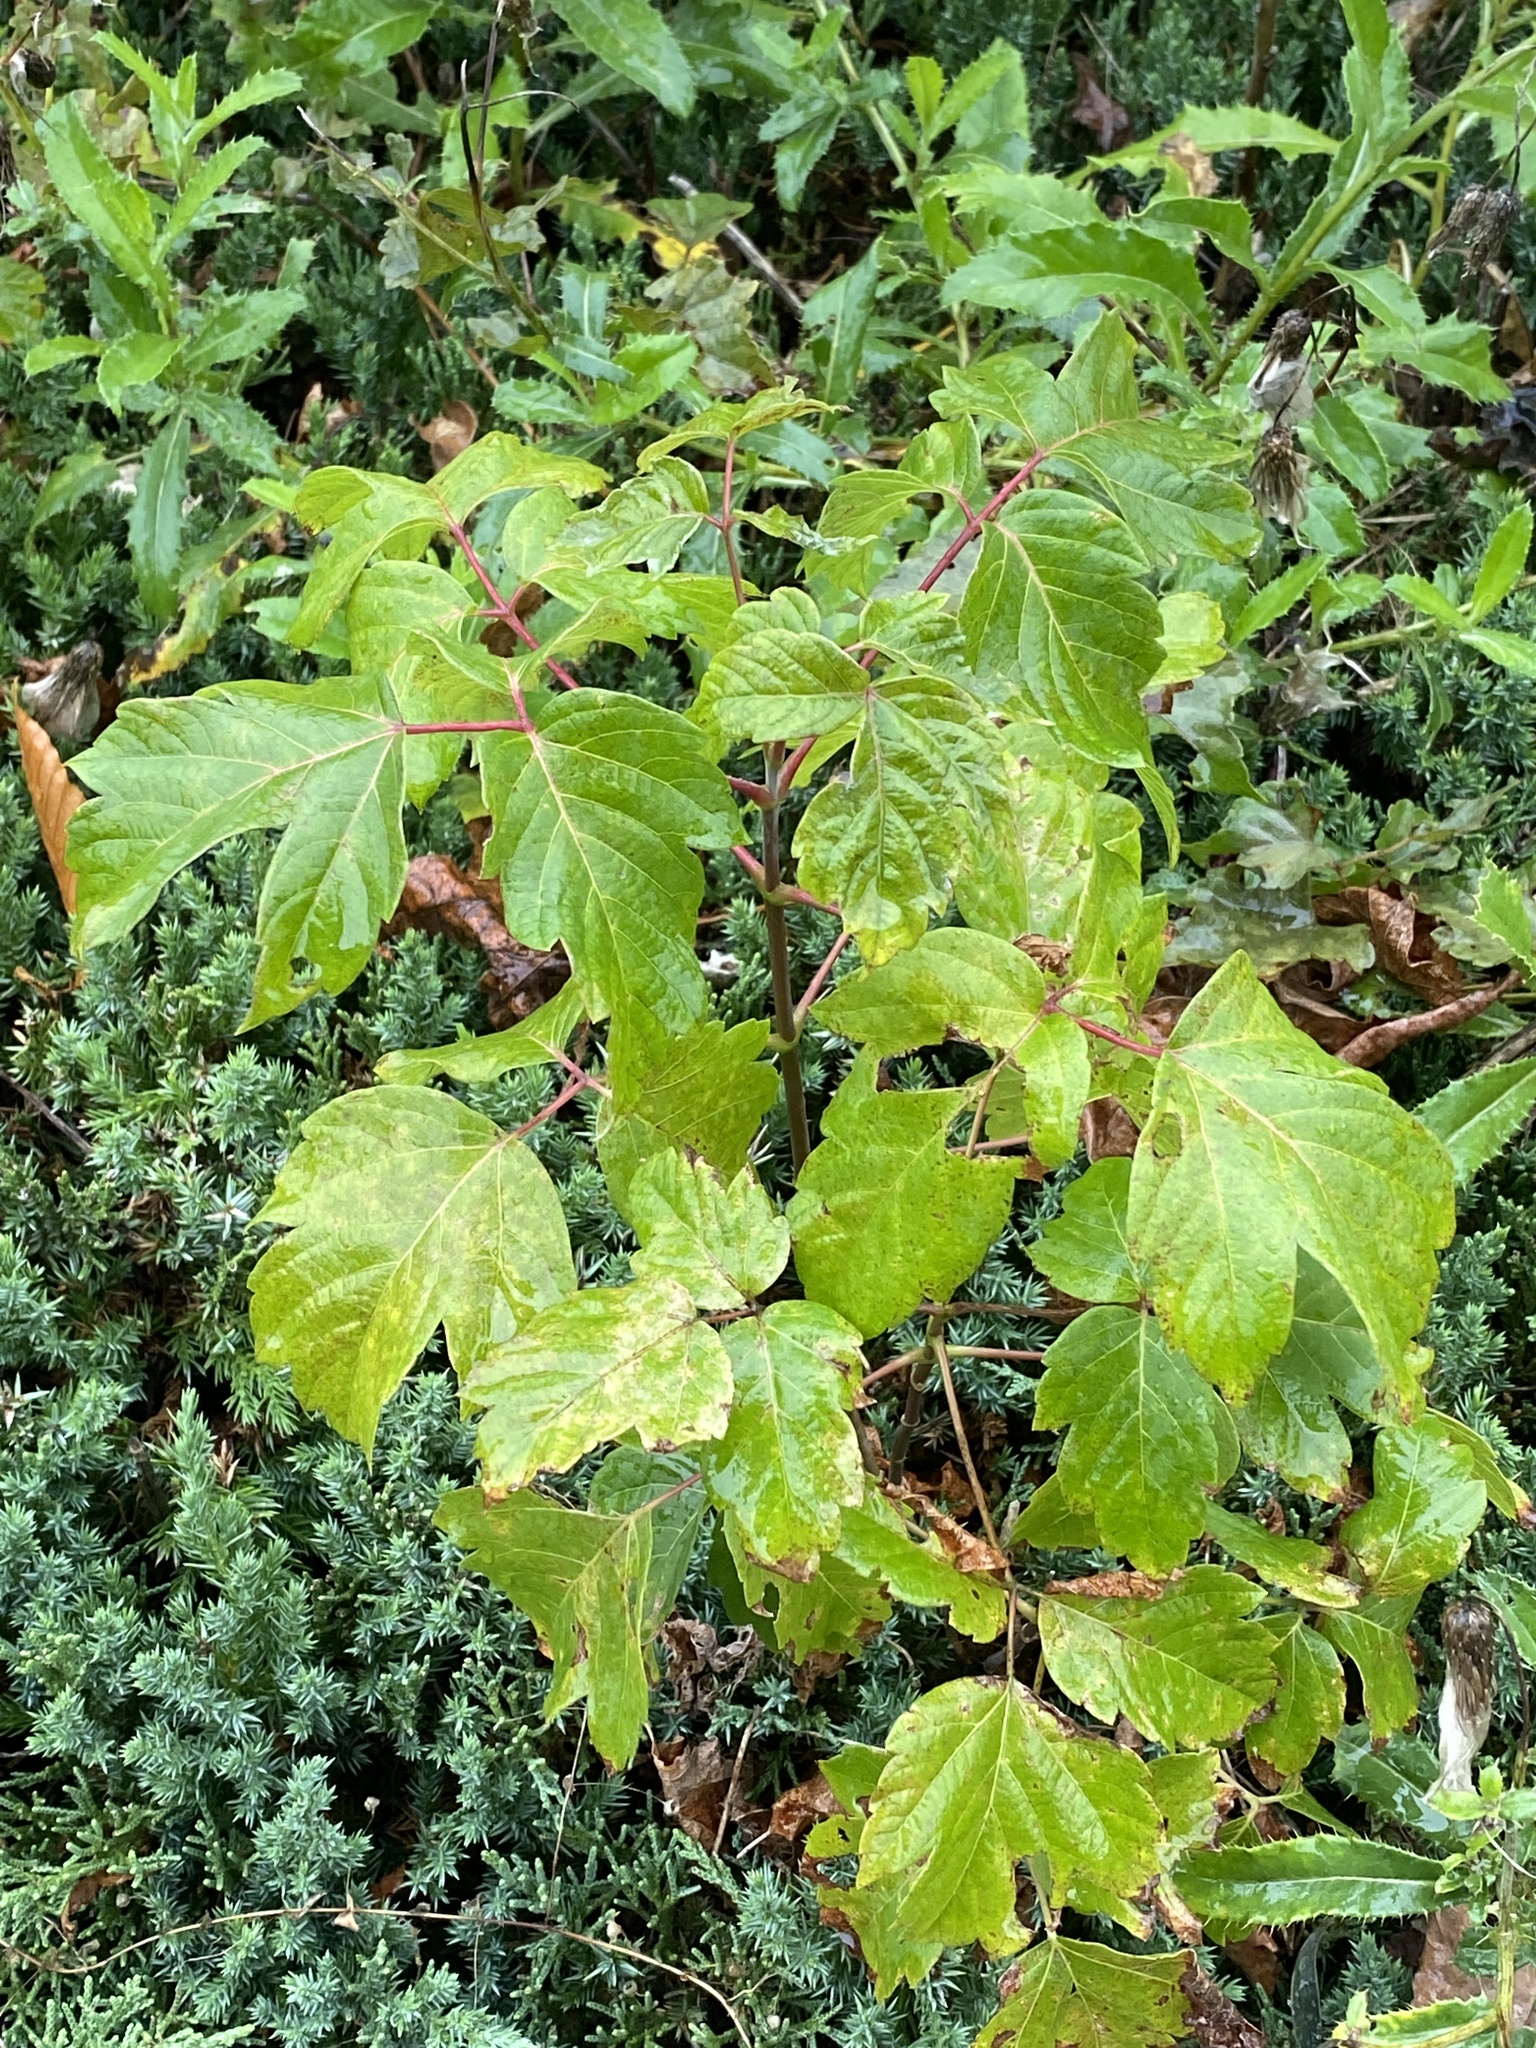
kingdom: Plantae
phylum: Tracheophyta
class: Magnoliopsida
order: Sapindales
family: Sapindaceae
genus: Acer
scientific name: Acer negundo
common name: Ashleaf maple
